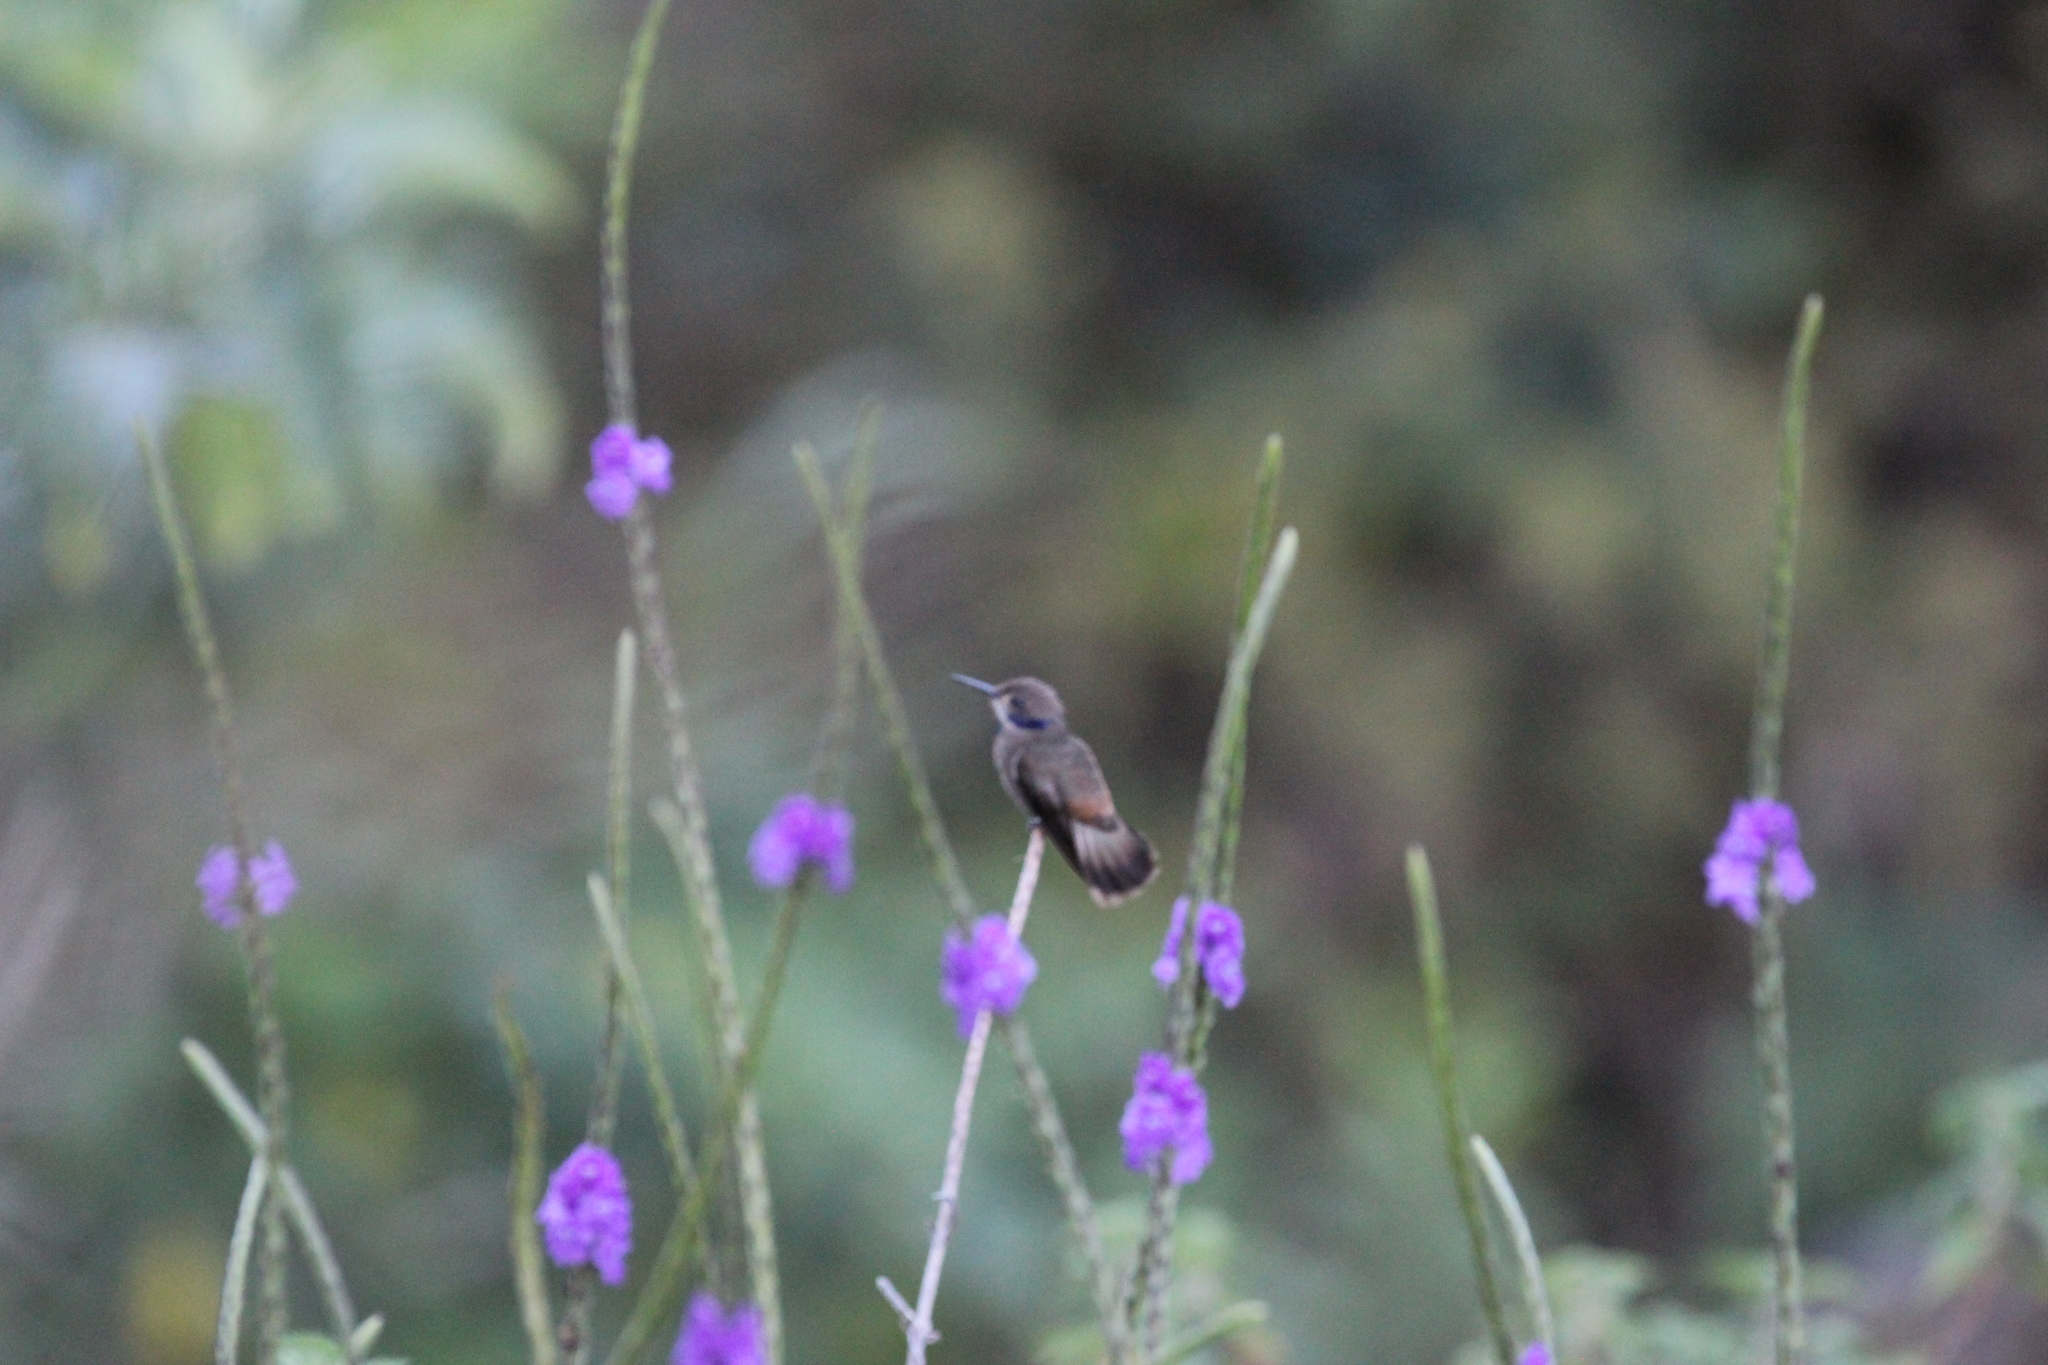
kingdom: Animalia
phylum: Chordata
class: Aves
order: Apodiformes
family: Trochilidae
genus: Colibri
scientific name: Colibri delphinae
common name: Brown violetear
